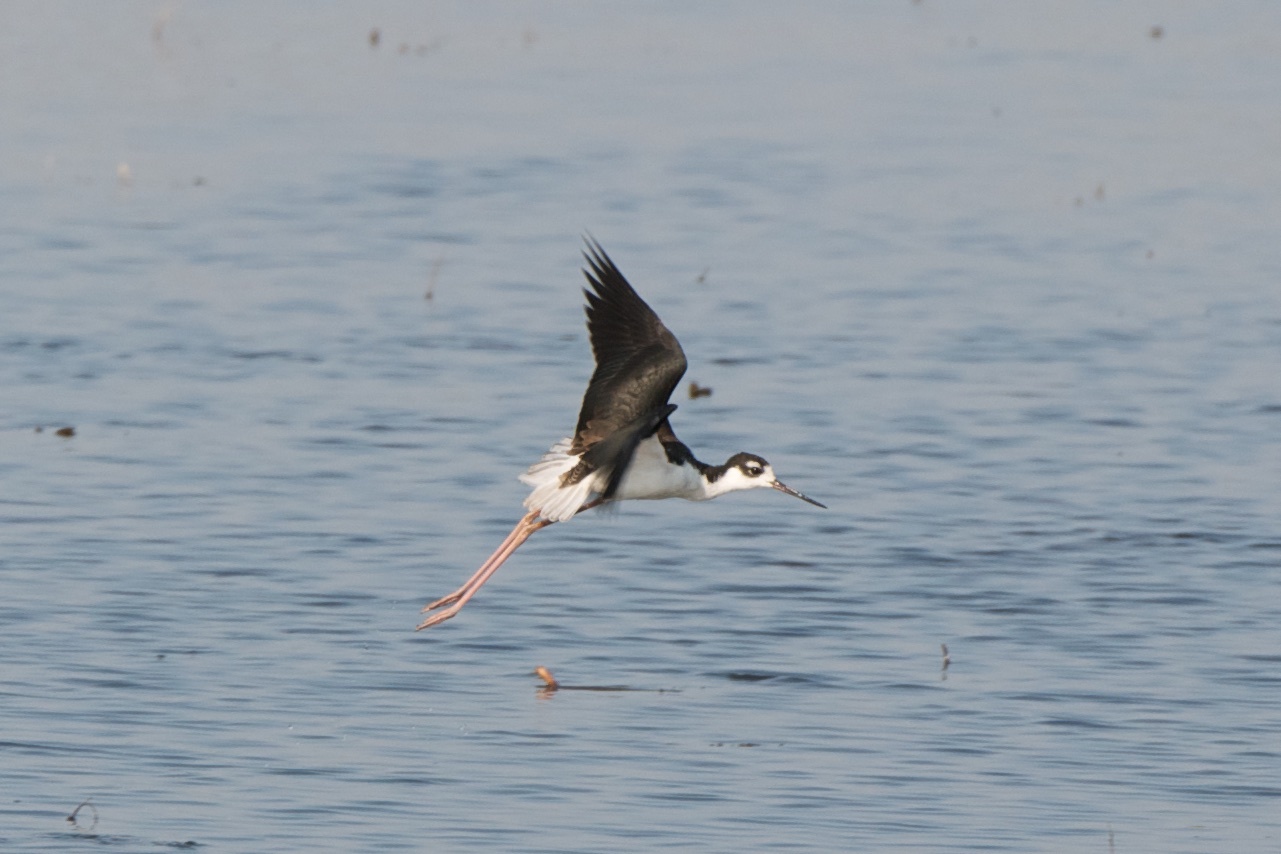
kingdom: Animalia
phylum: Chordata
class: Aves
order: Charadriiformes
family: Recurvirostridae
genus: Himantopus
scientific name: Himantopus mexicanus
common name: Black-necked stilt
